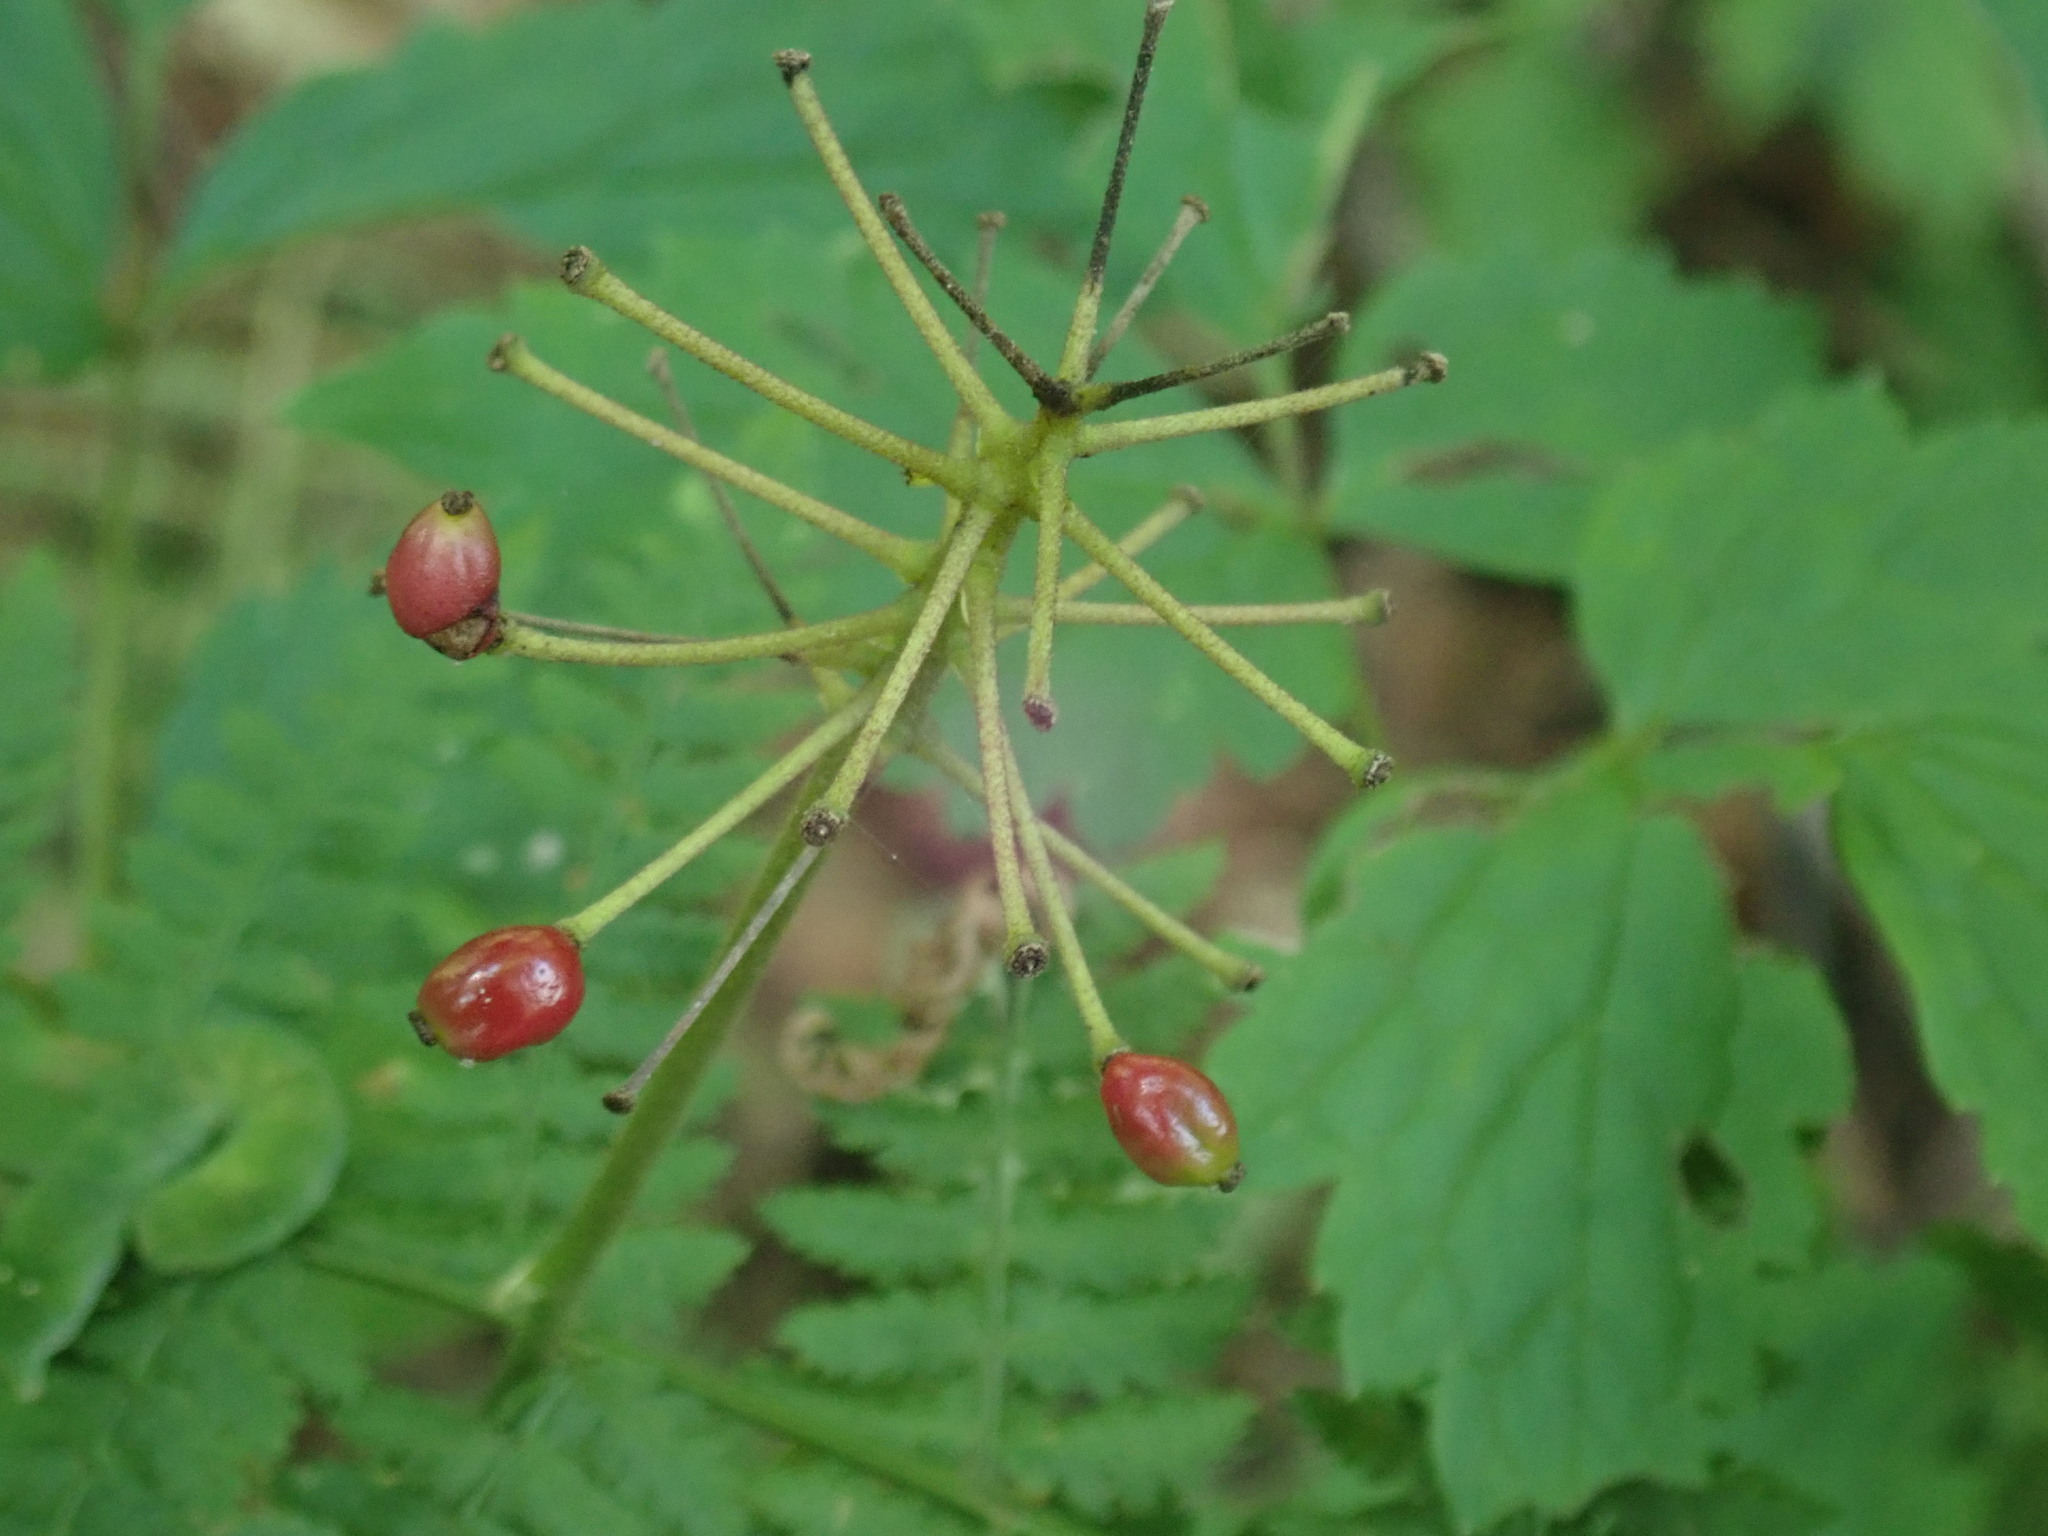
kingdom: Plantae
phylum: Tracheophyta
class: Magnoliopsida
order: Ranunculales
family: Ranunculaceae
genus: Actaea
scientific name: Actaea rubra
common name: Red baneberry
